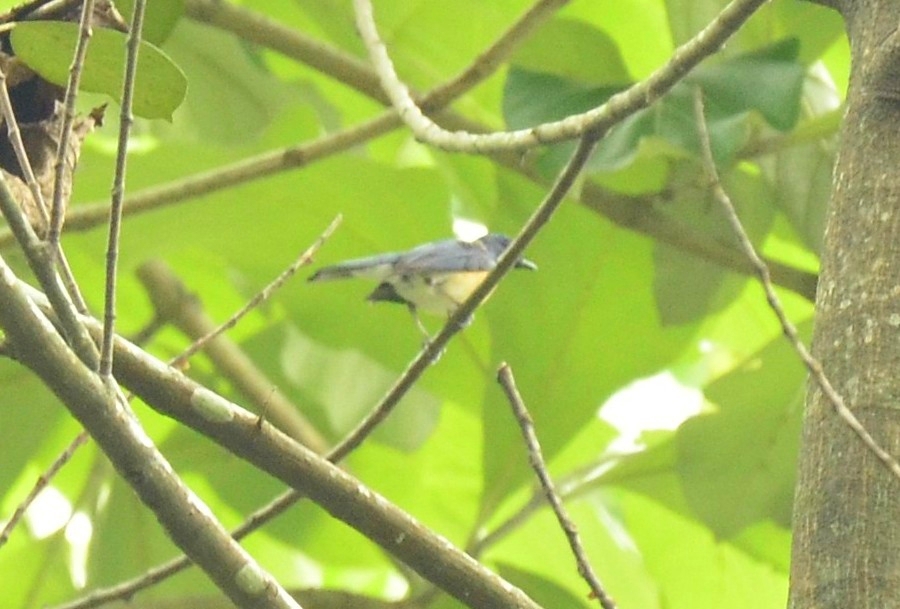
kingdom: Animalia
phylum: Chordata
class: Aves
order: Passeriformes
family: Muscicapidae
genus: Cyornis
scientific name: Cyornis tickelliae
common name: Tickell's blue flycatcher
